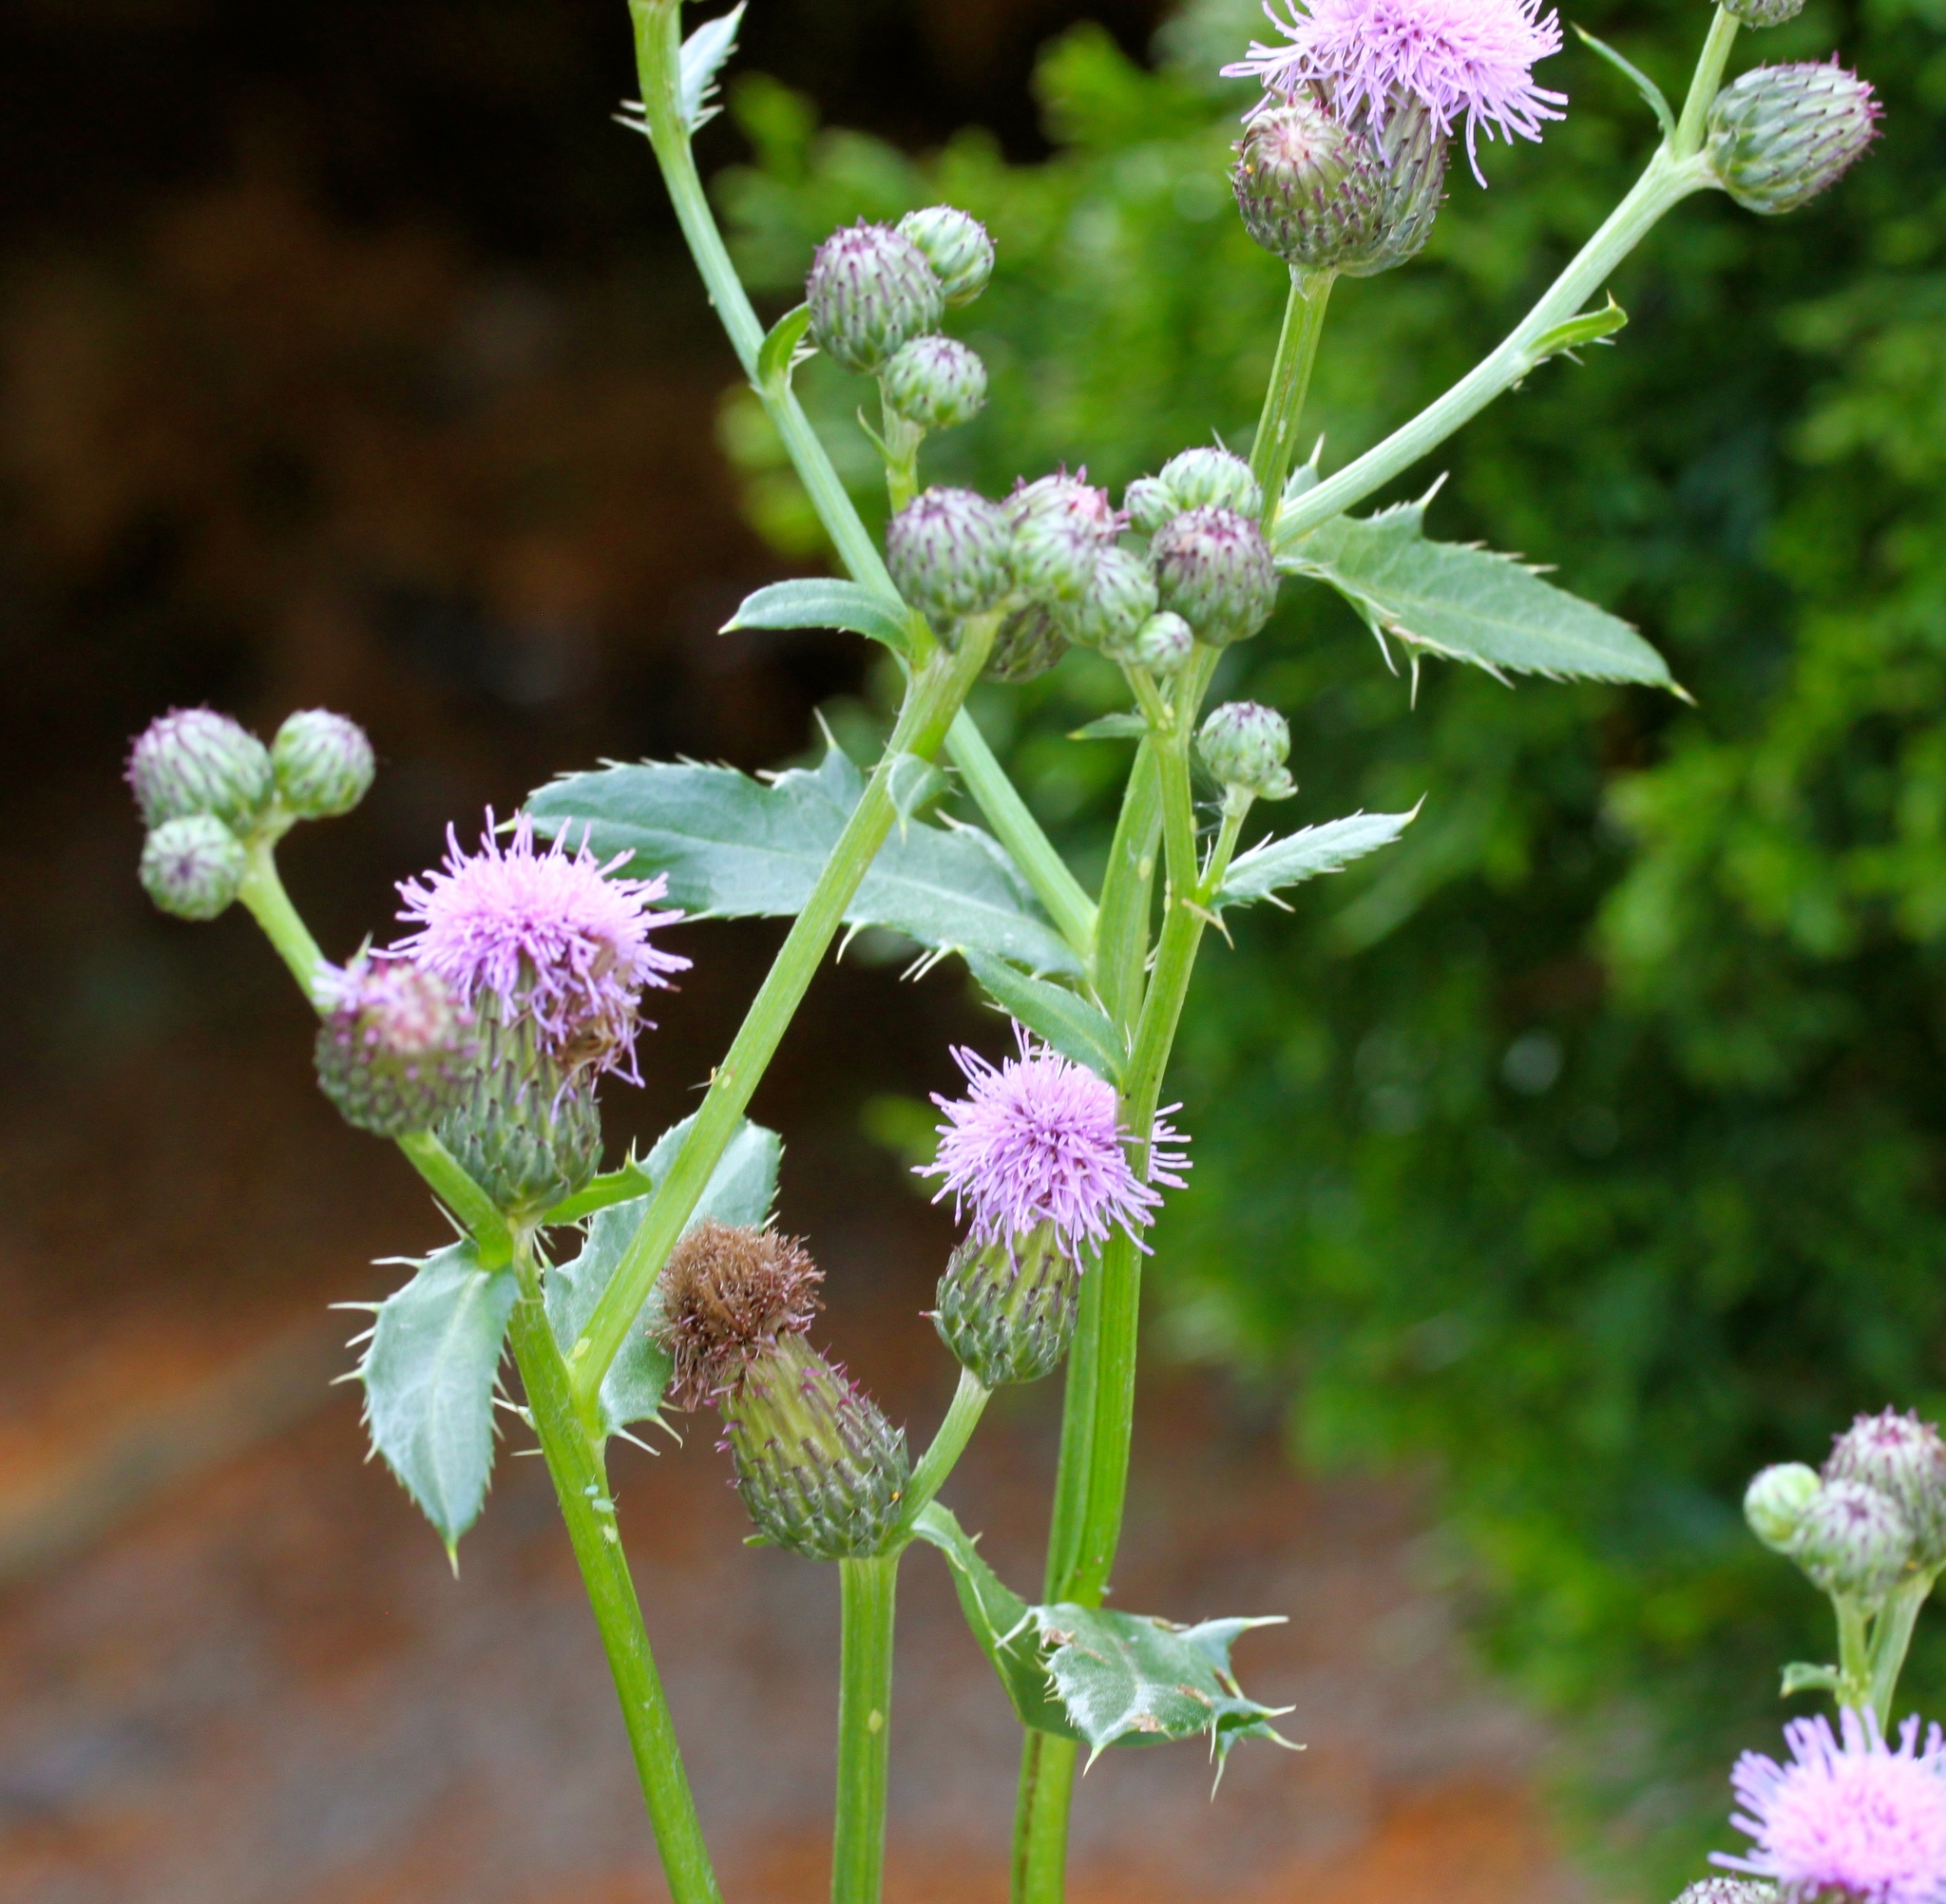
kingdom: Plantae
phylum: Tracheophyta
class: Magnoliopsida
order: Asterales
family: Asteraceae
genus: Cirsium
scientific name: Cirsium arvense
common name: Creeping thistle
